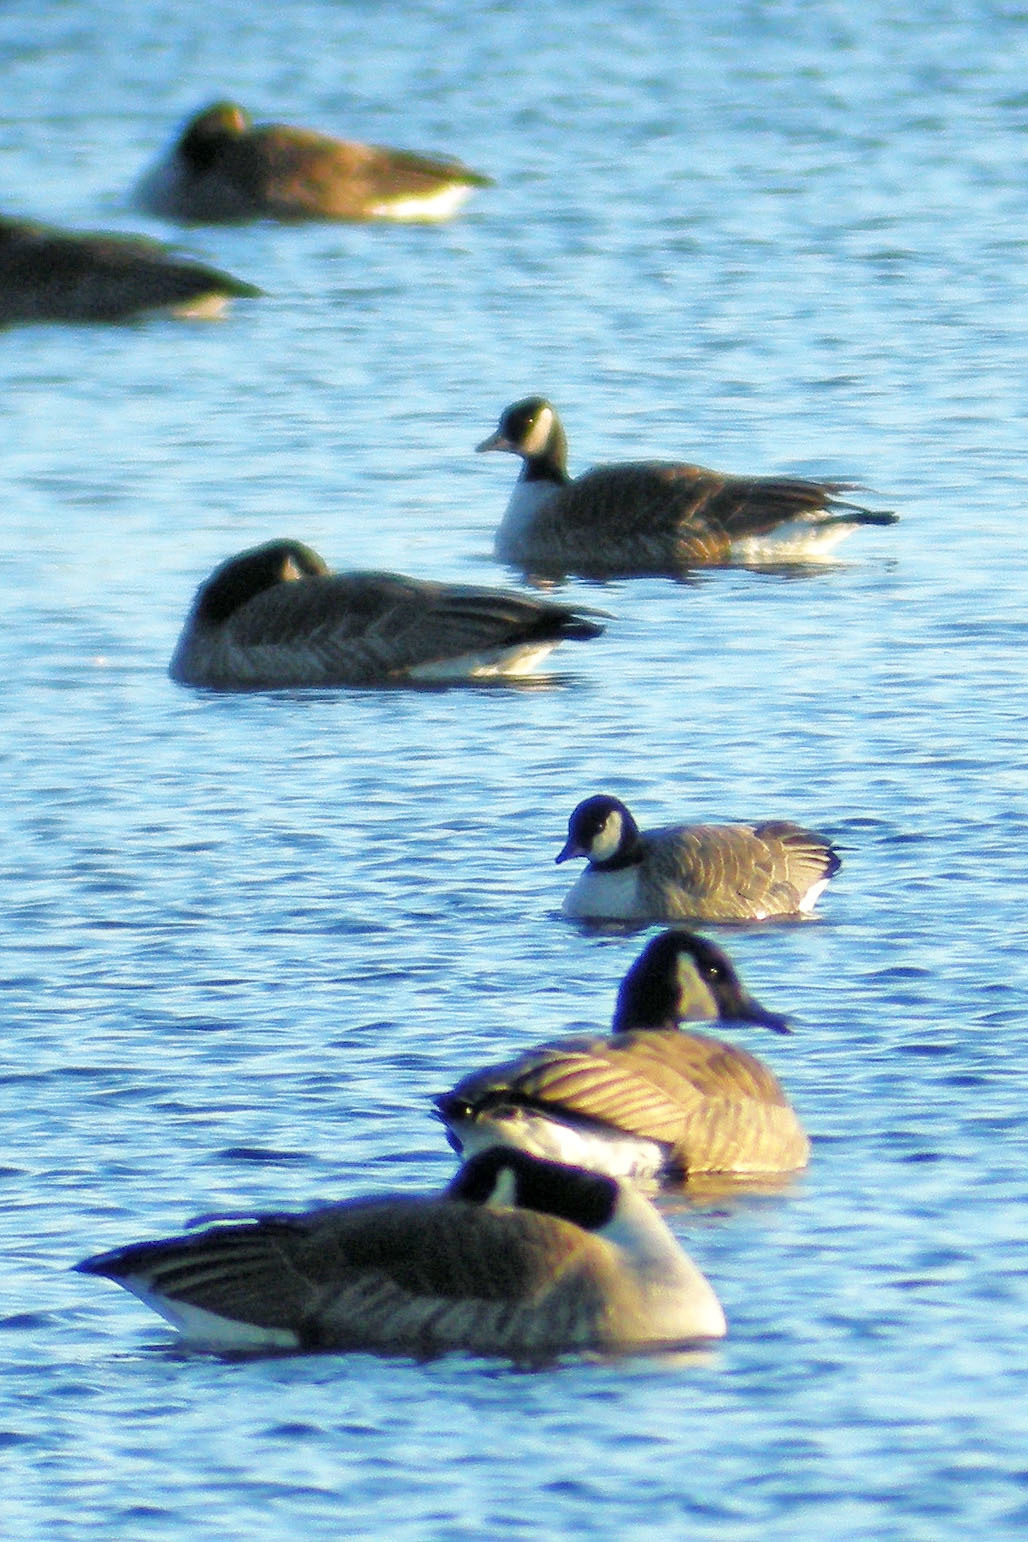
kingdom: Animalia
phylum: Chordata
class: Aves
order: Anseriformes
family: Anatidae
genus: Branta
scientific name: Branta hutchinsii
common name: Cackling goose
